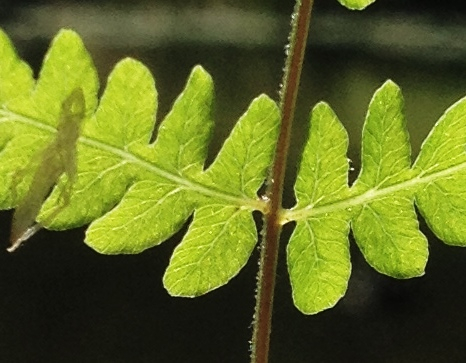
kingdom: Plantae
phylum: Tracheophyta
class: Polypodiopsida
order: Polypodiales
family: Thelypteridaceae
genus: Thelypteris
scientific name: Thelypteris palustris
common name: Marsh fern
